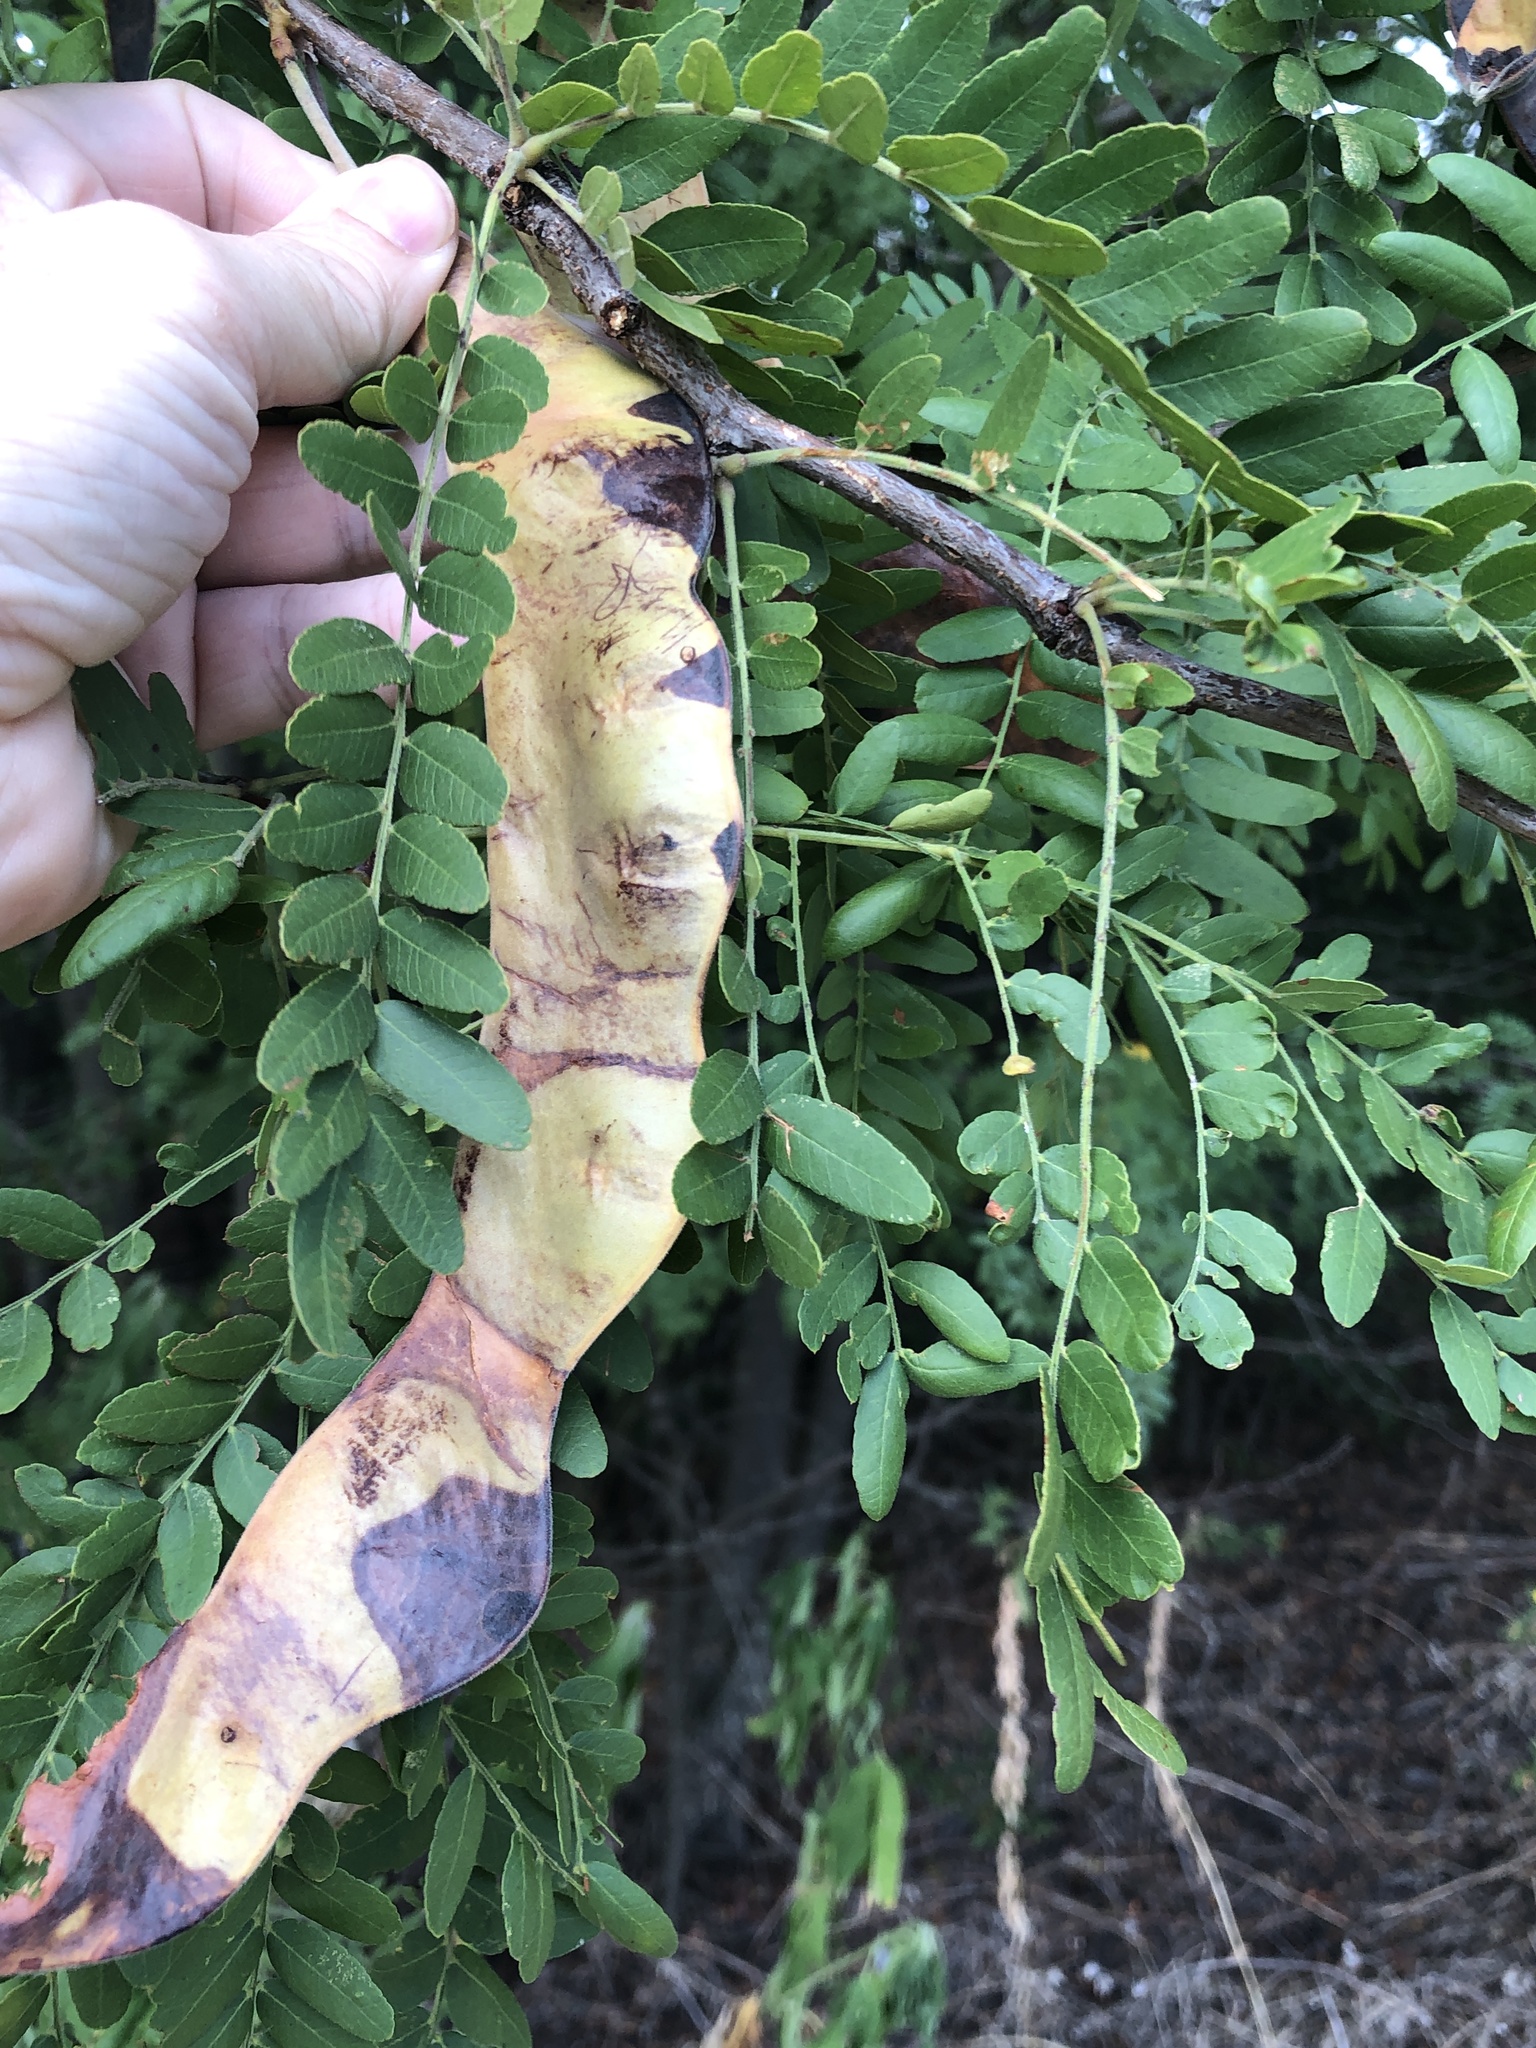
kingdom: Plantae
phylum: Tracheophyta
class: Magnoliopsida
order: Fabales
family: Fabaceae
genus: Gleditsia
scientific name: Gleditsia triacanthos
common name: Common honeylocust
